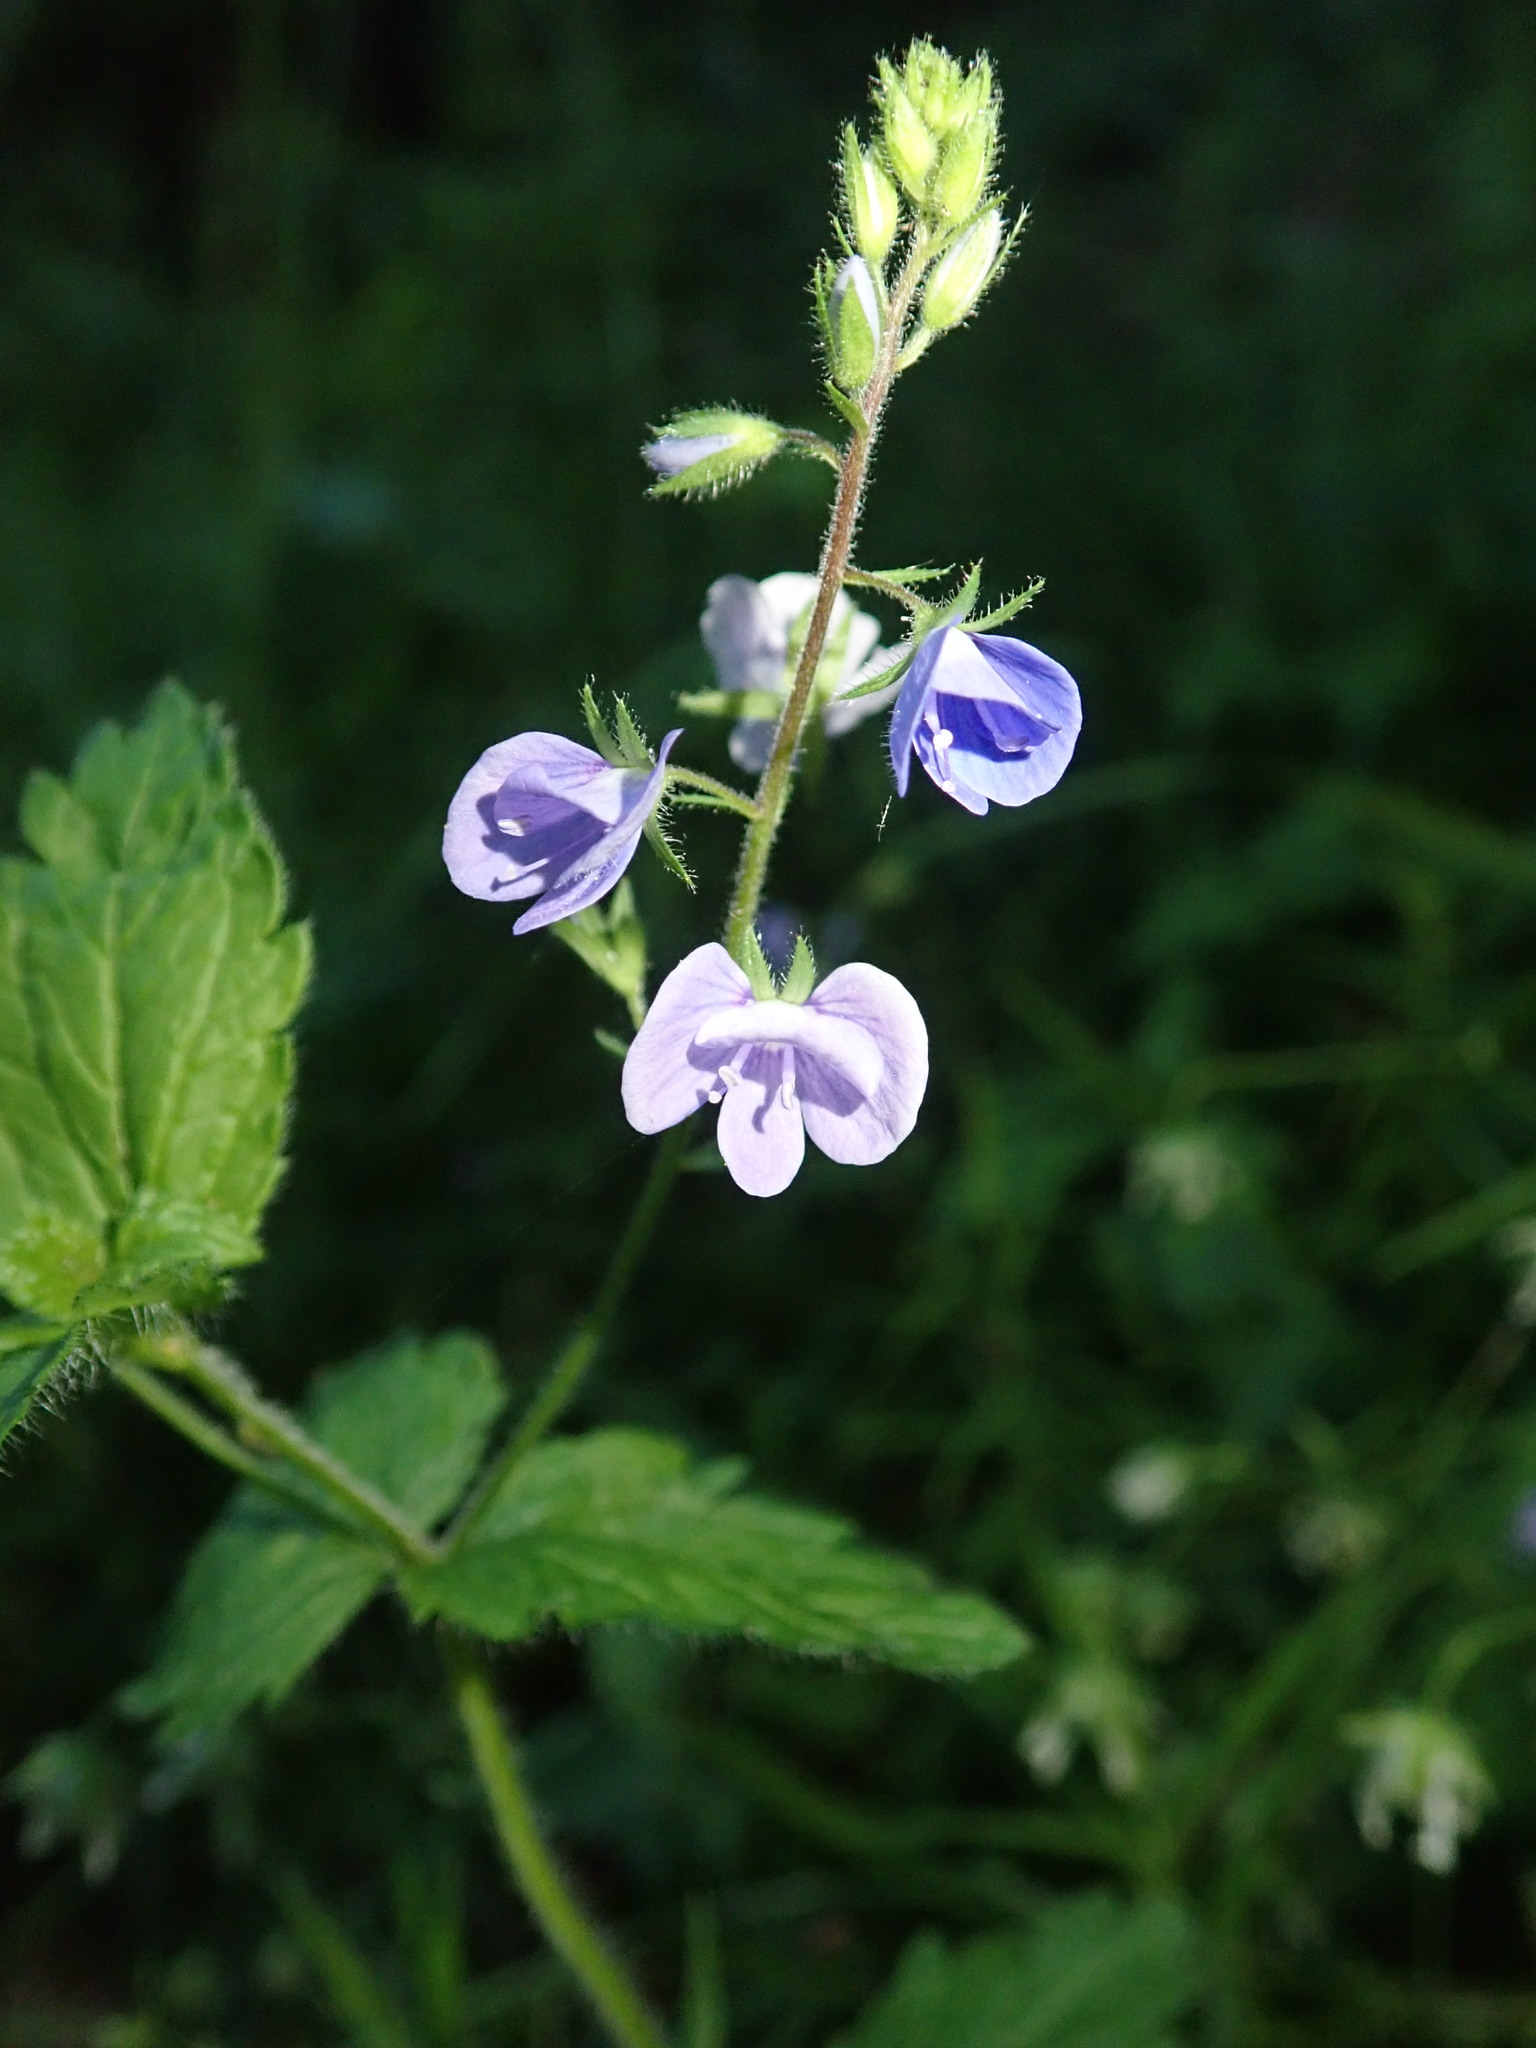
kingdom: Plantae
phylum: Tracheophyta
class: Magnoliopsida
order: Lamiales
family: Plantaginaceae
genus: Veronica
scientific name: Veronica chamaedrys
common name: Germander speedwell
